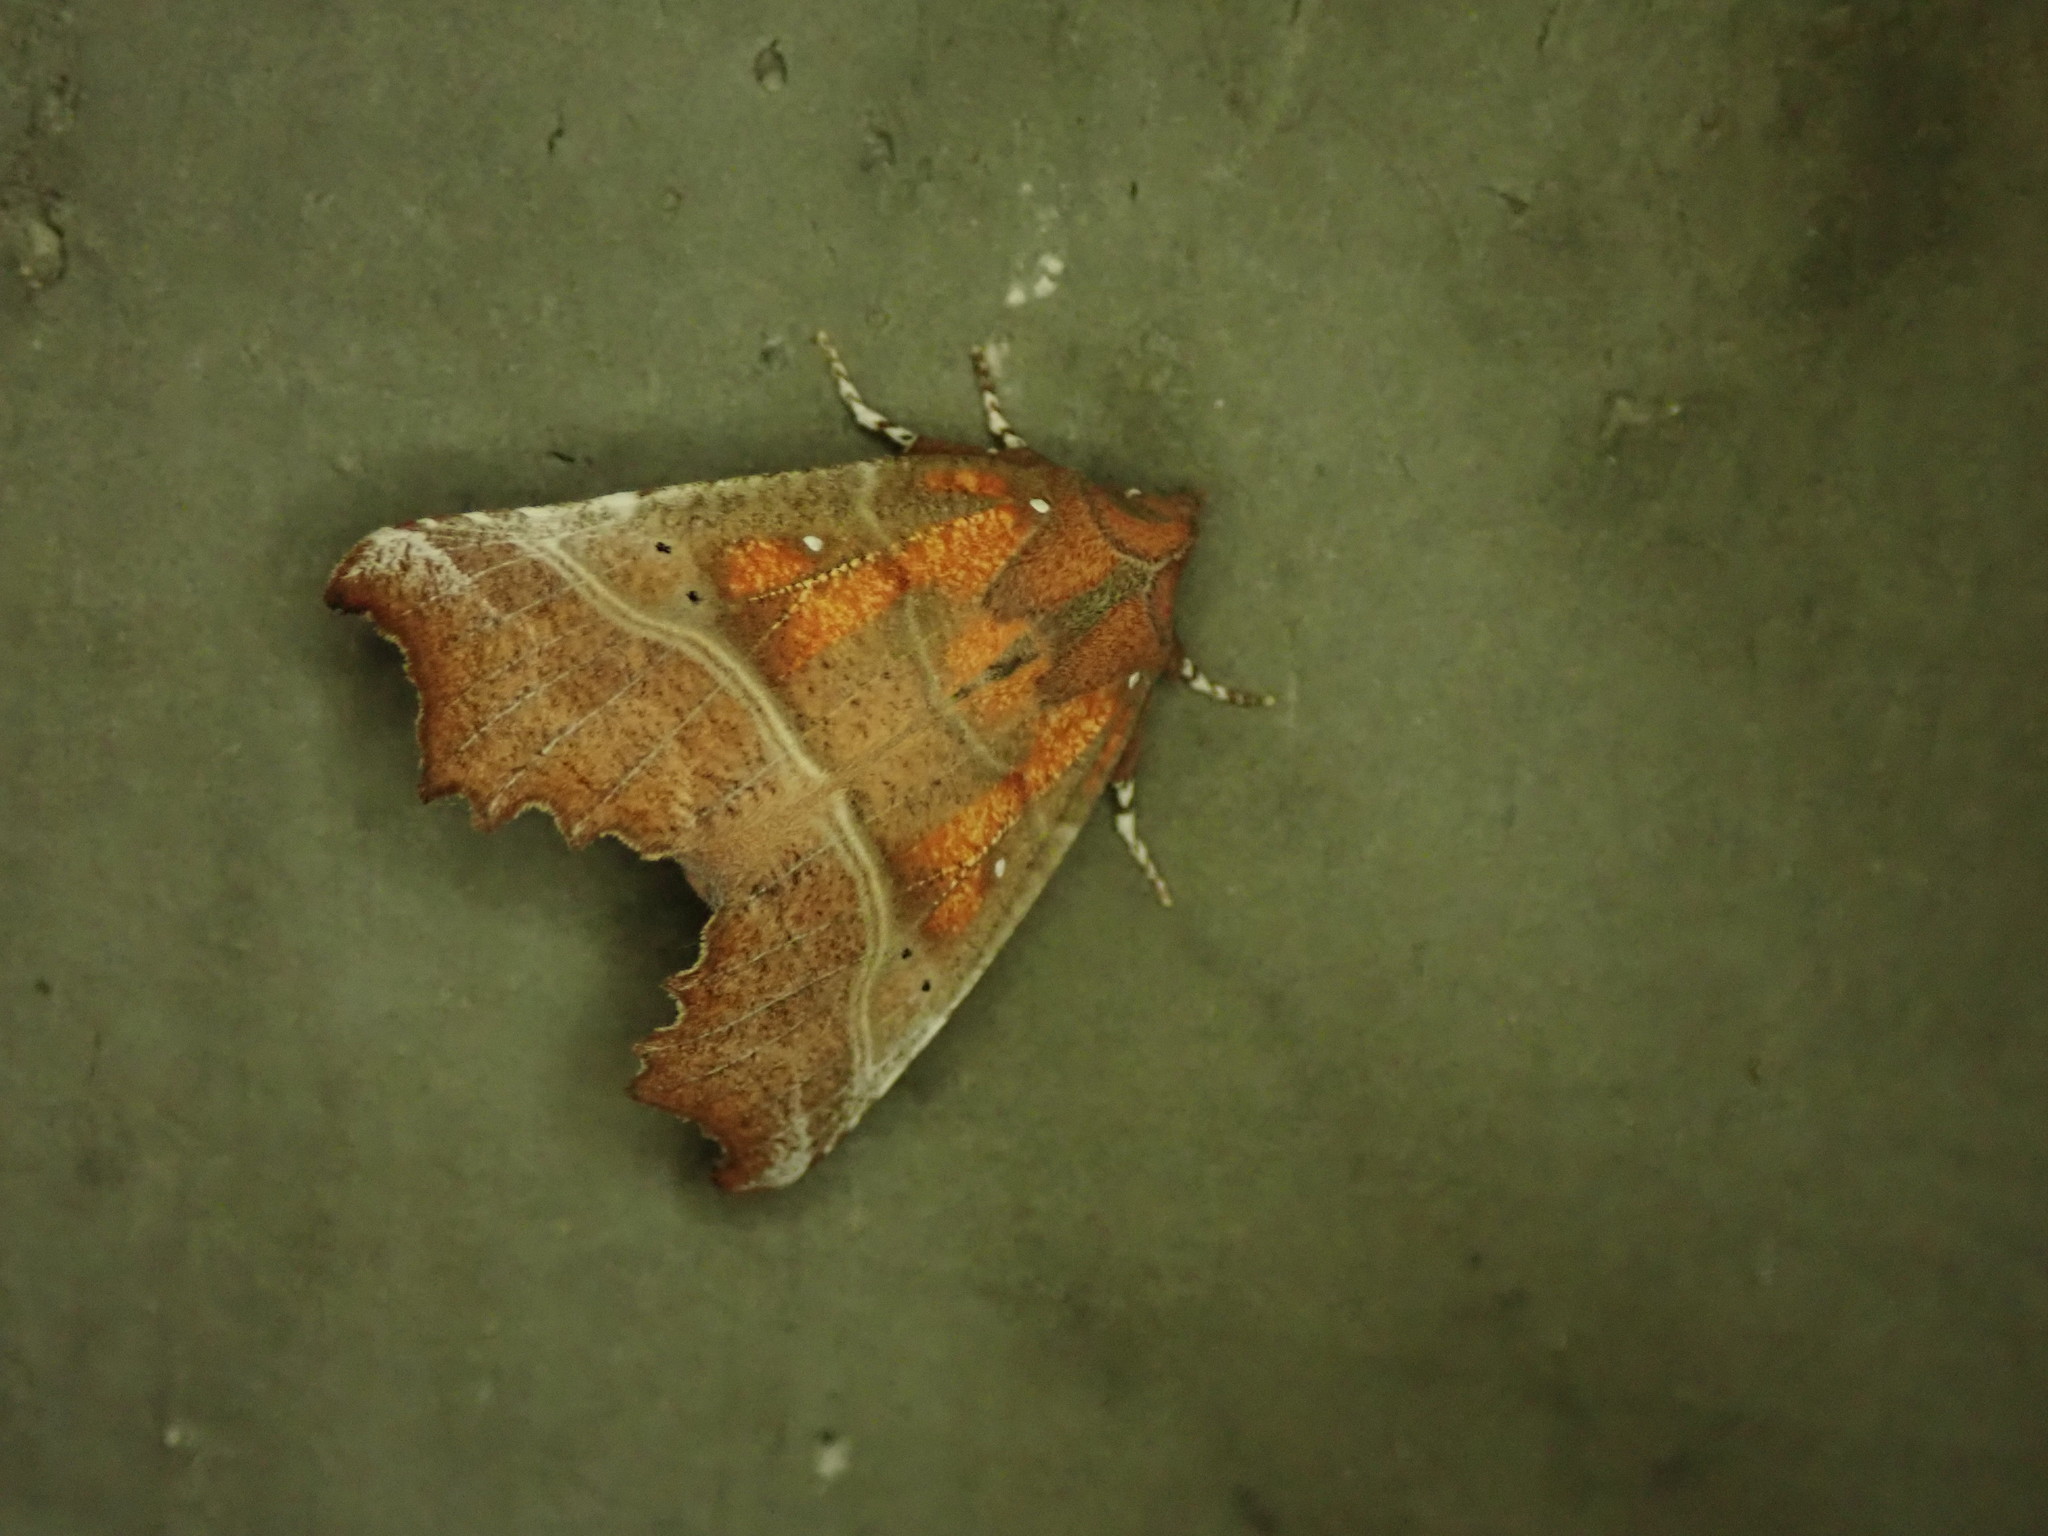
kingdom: Animalia
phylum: Arthropoda
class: Insecta
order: Lepidoptera
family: Erebidae
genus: Scoliopteryx
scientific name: Scoliopteryx libatrix
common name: Herald
